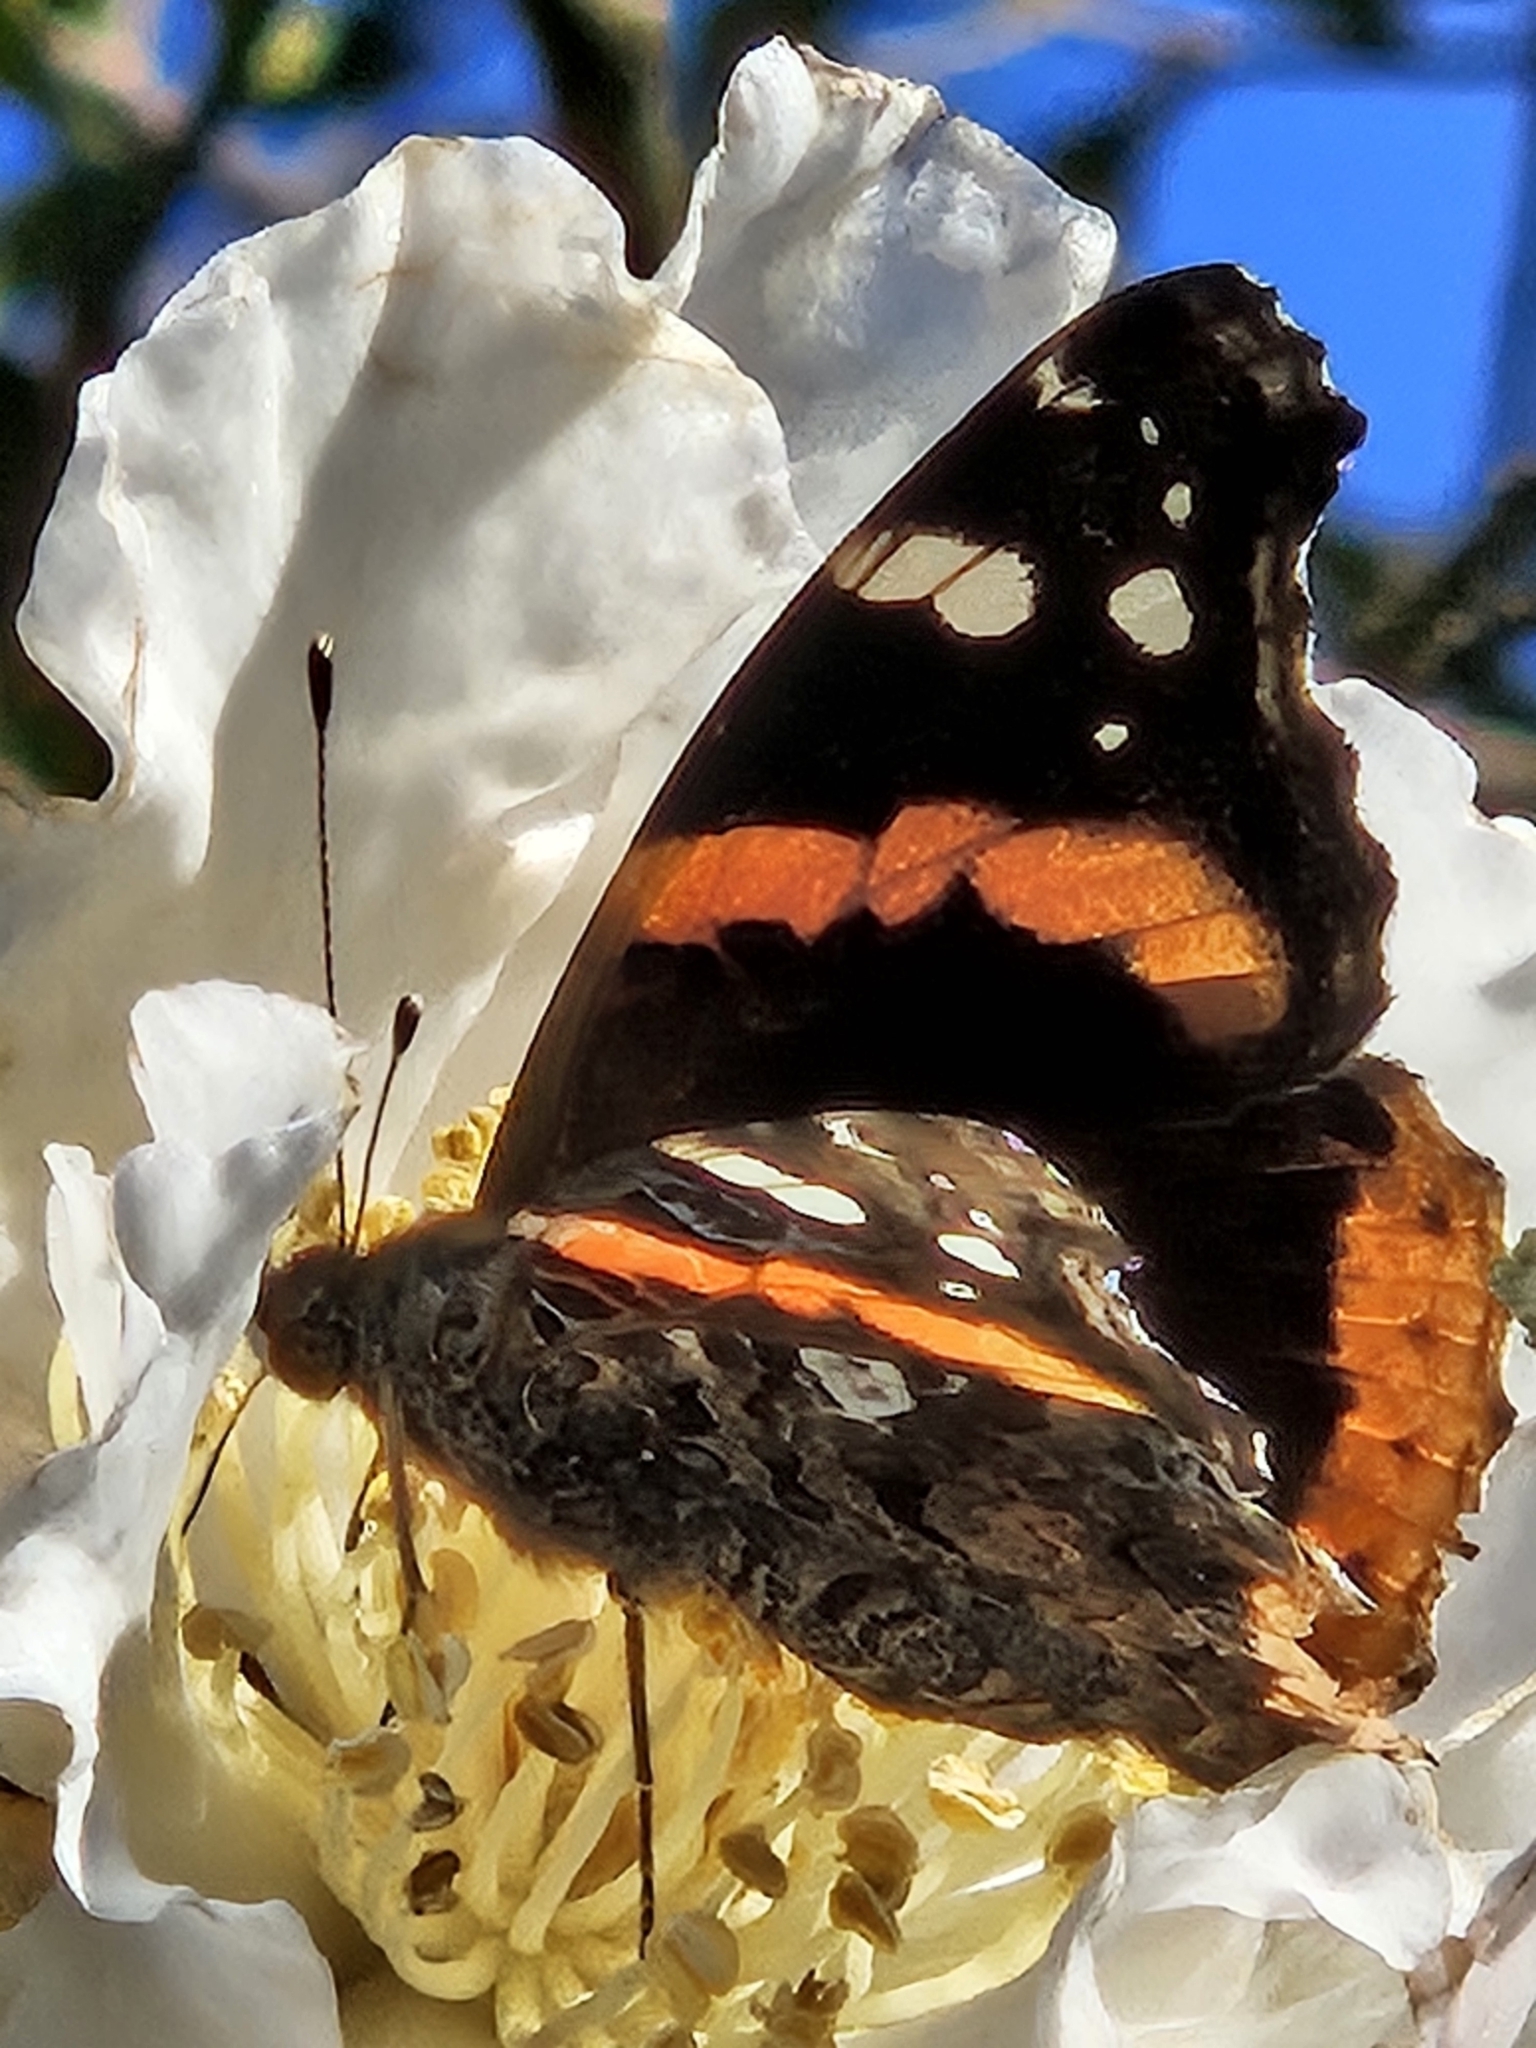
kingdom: Animalia
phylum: Arthropoda
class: Insecta
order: Lepidoptera
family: Nymphalidae
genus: Vanessa
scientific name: Vanessa atalanta
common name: Red admiral
